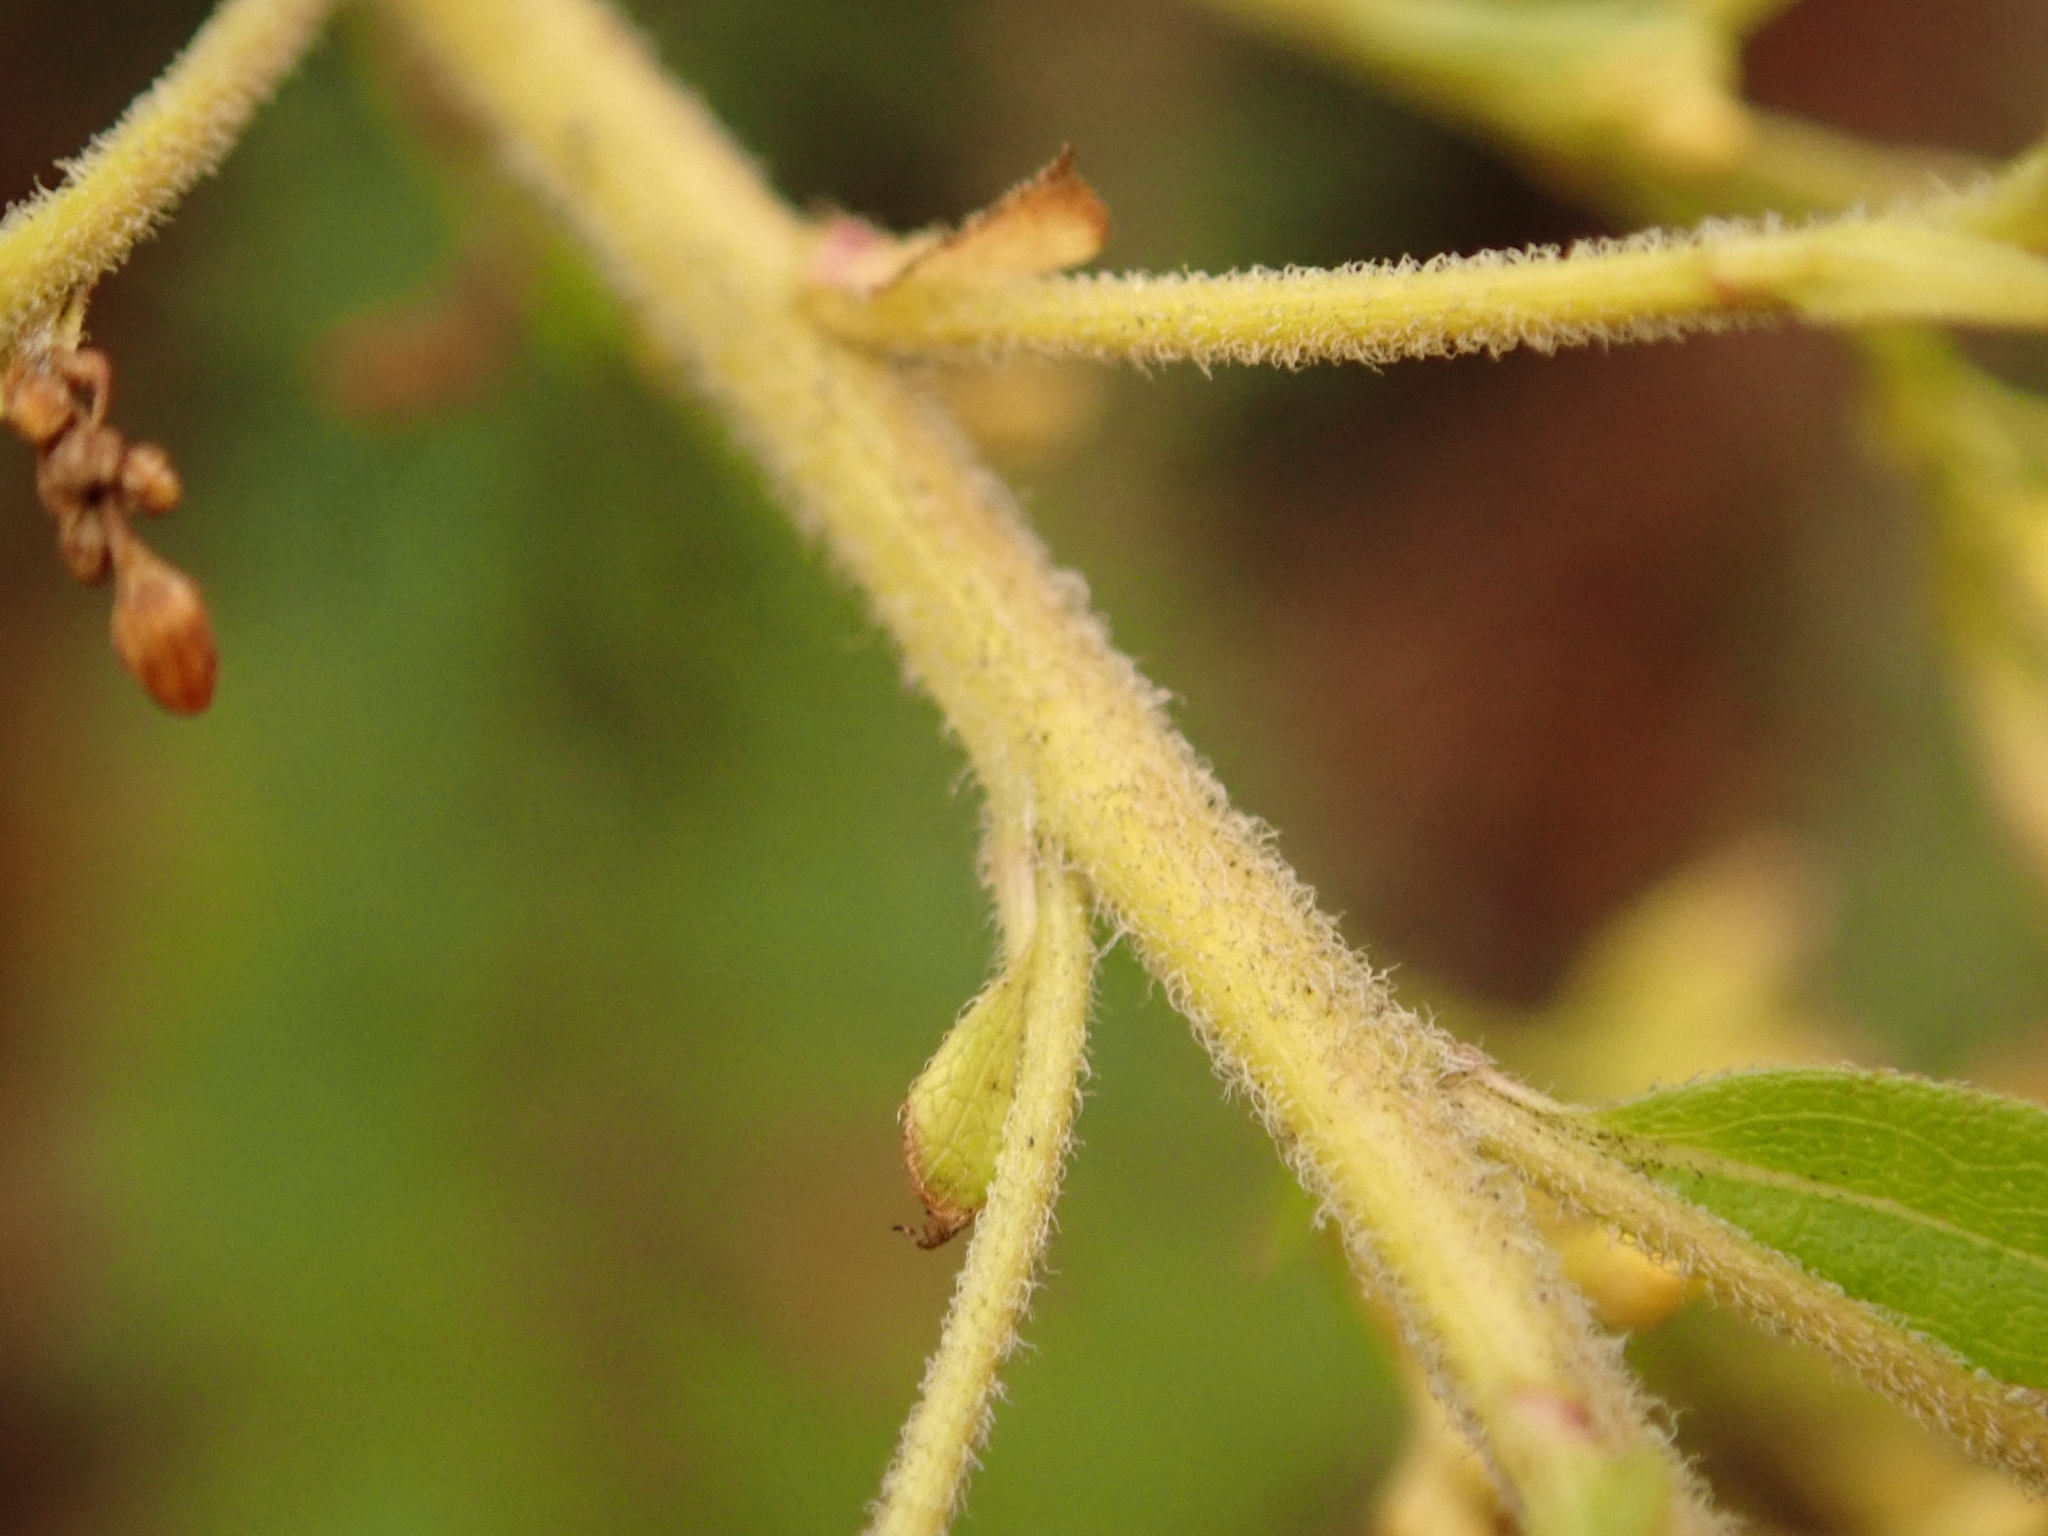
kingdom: Plantae
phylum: Tracheophyta
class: Magnoliopsida
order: Asterales
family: Asteraceae
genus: Solidago
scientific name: Solidago canadensis
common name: Canada goldenrod
